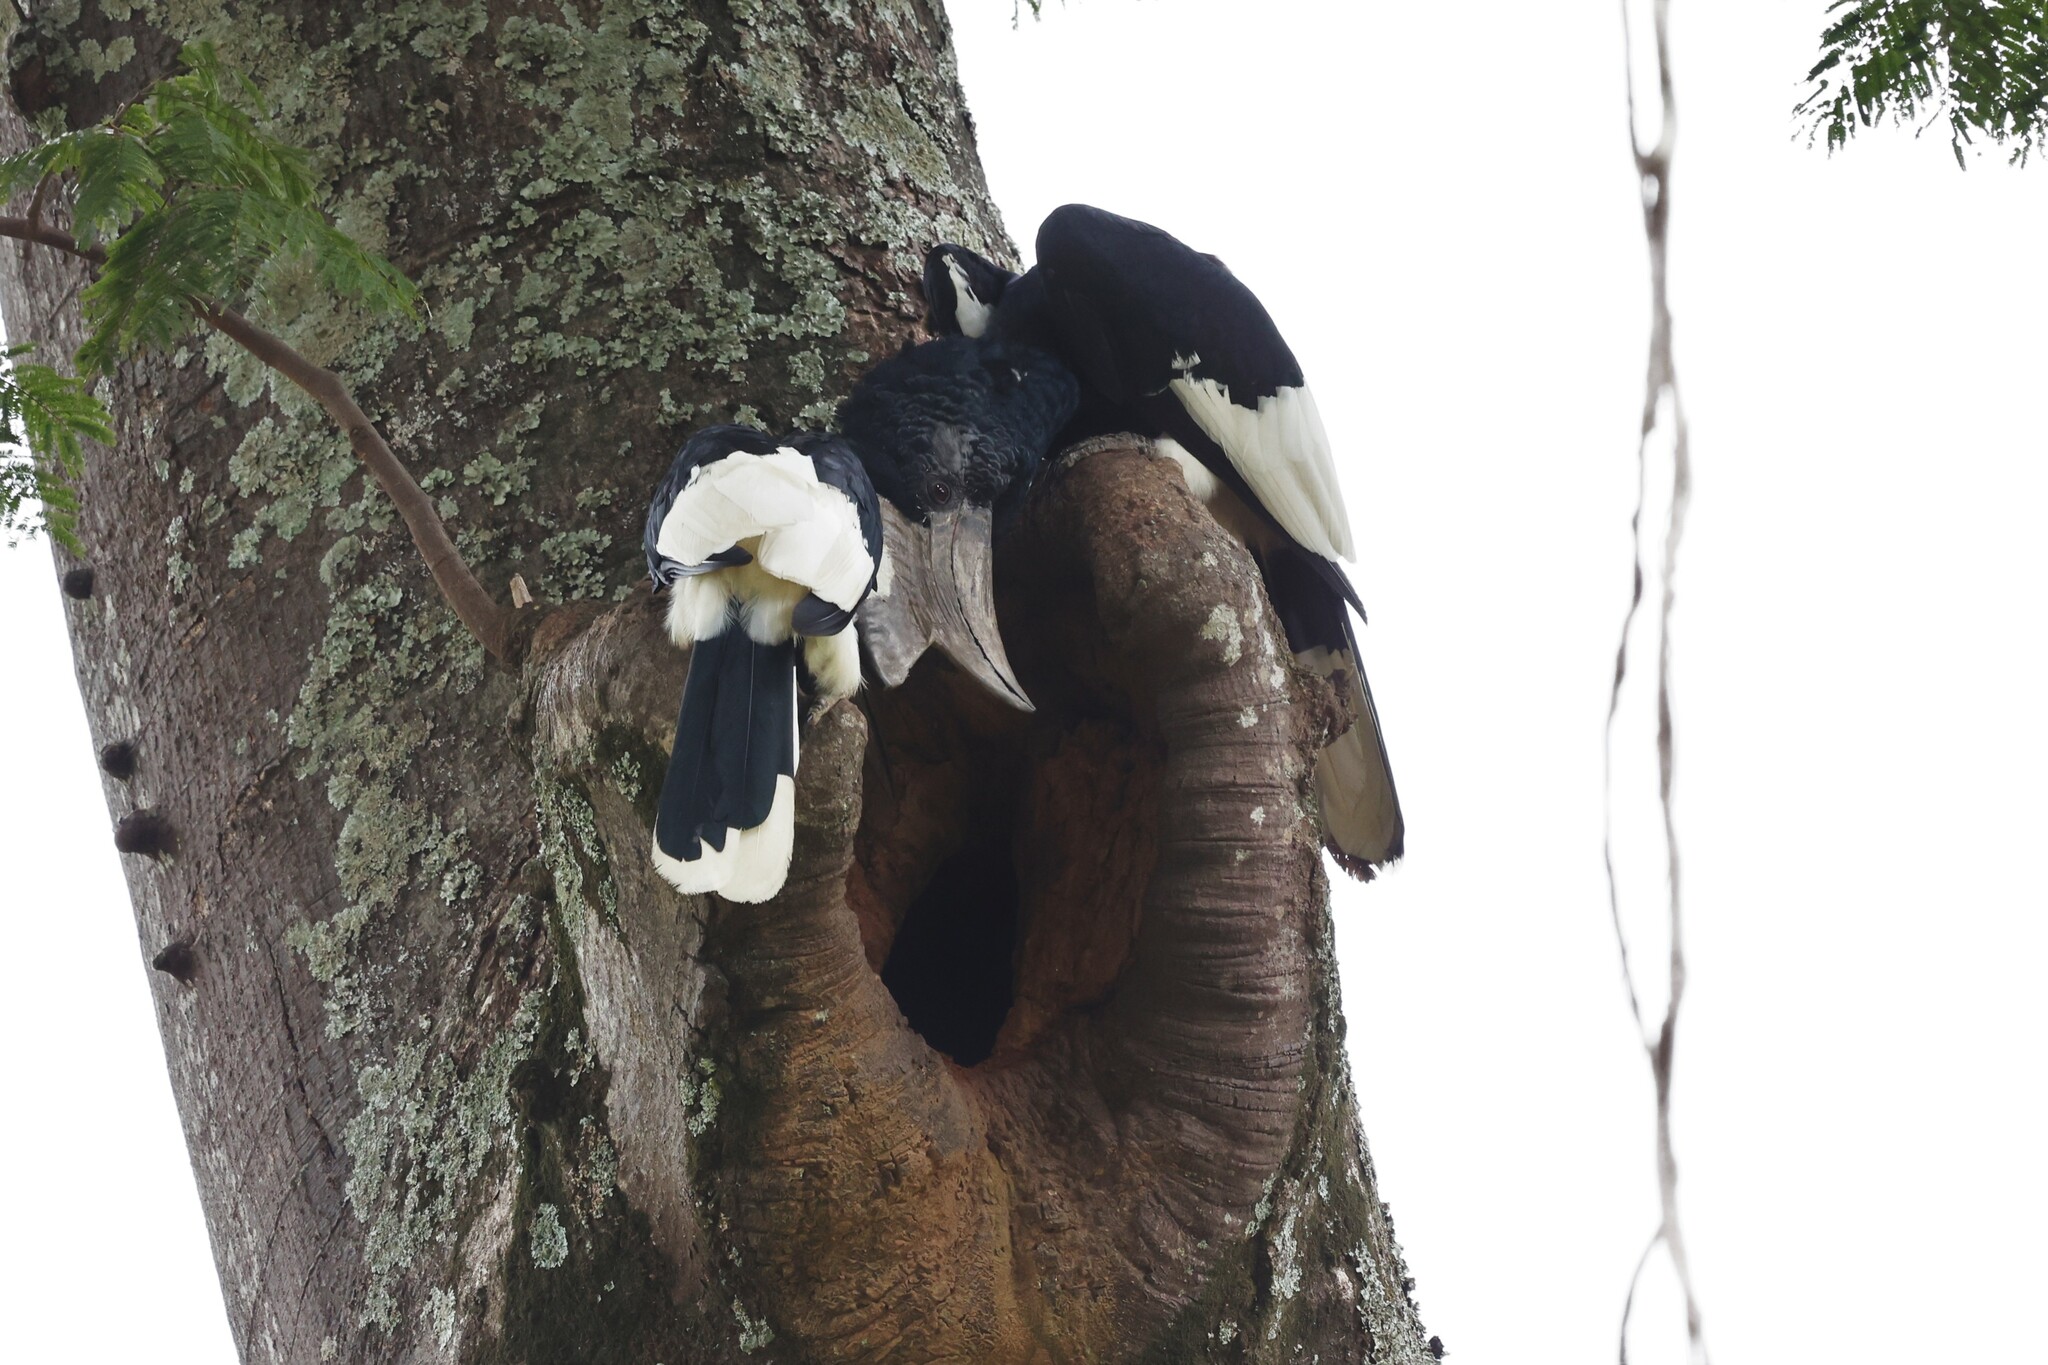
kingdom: Animalia
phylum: Chordata
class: Aves
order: Bucerotiformes
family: Bucerotidae
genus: Bycanistes
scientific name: Bycanistes subcylindricus
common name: Black-and-white-casqued hornbill
